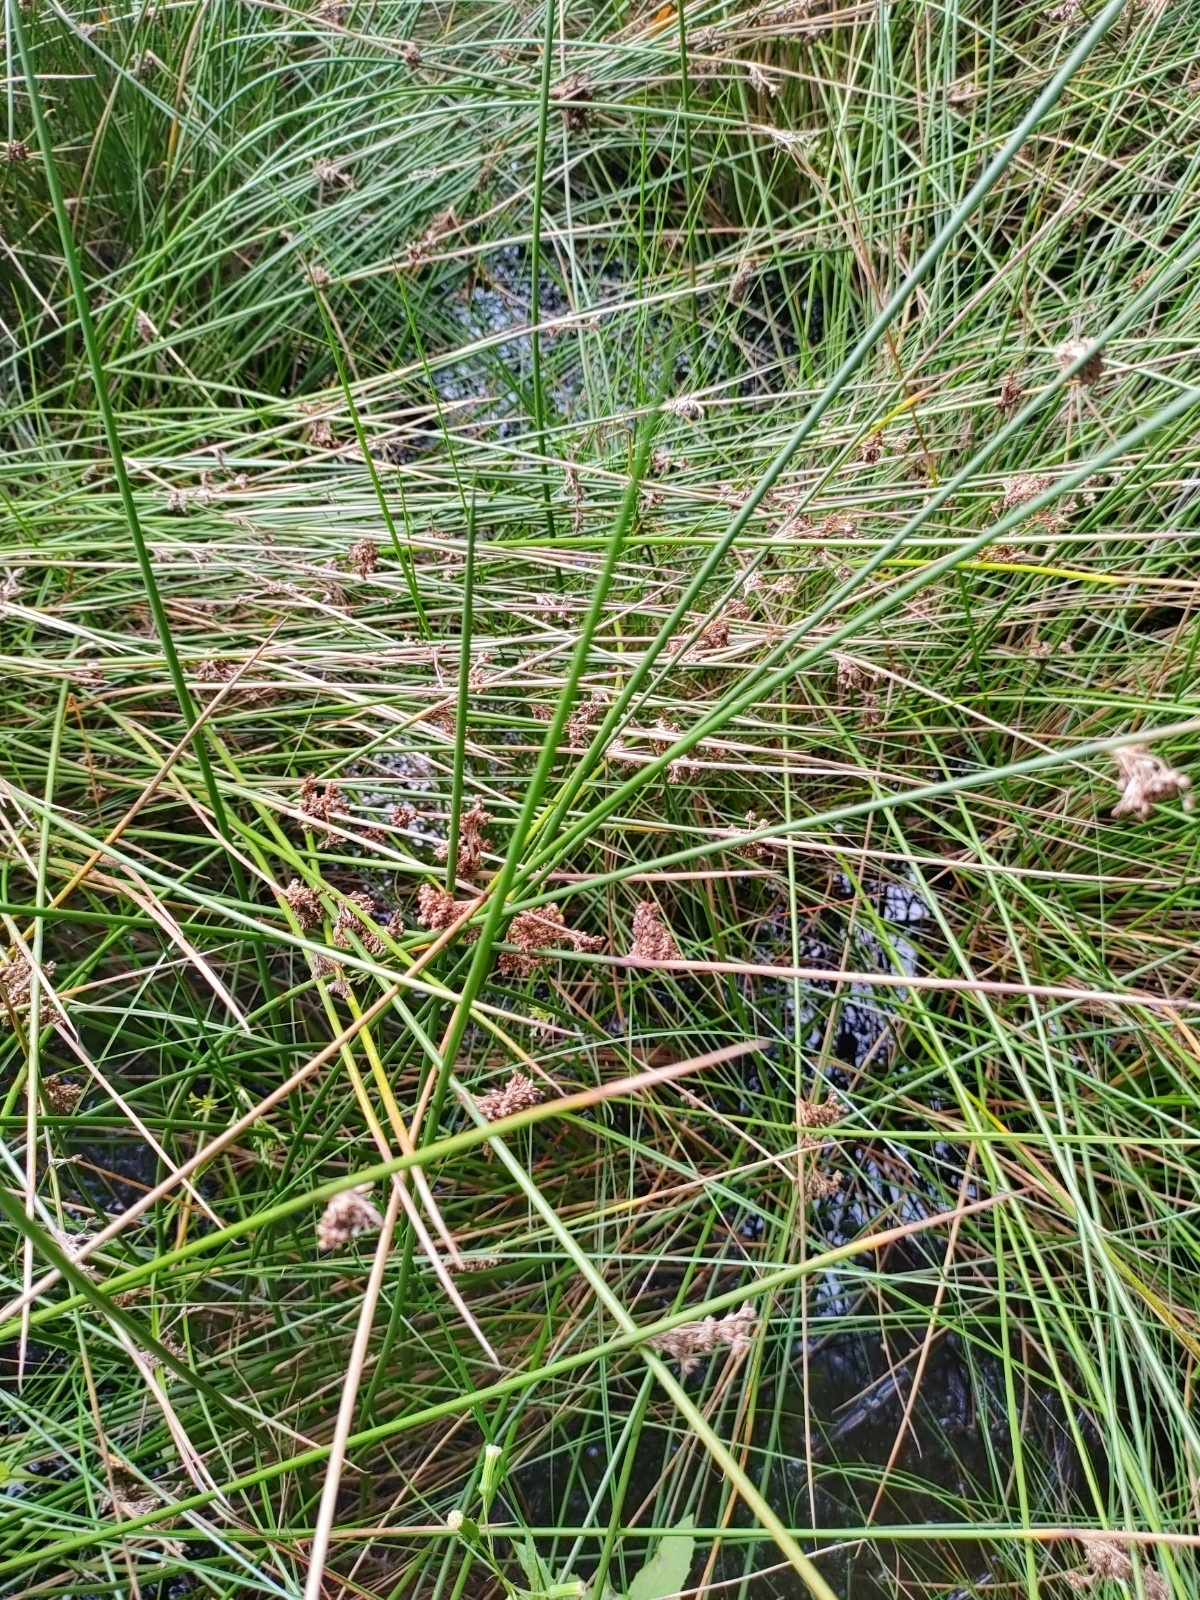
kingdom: Plantae
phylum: Tracheophyta
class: Liliopsida
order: Poales
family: Juncaceae
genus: Juncus
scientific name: Juncus effusus
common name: Soft rush
